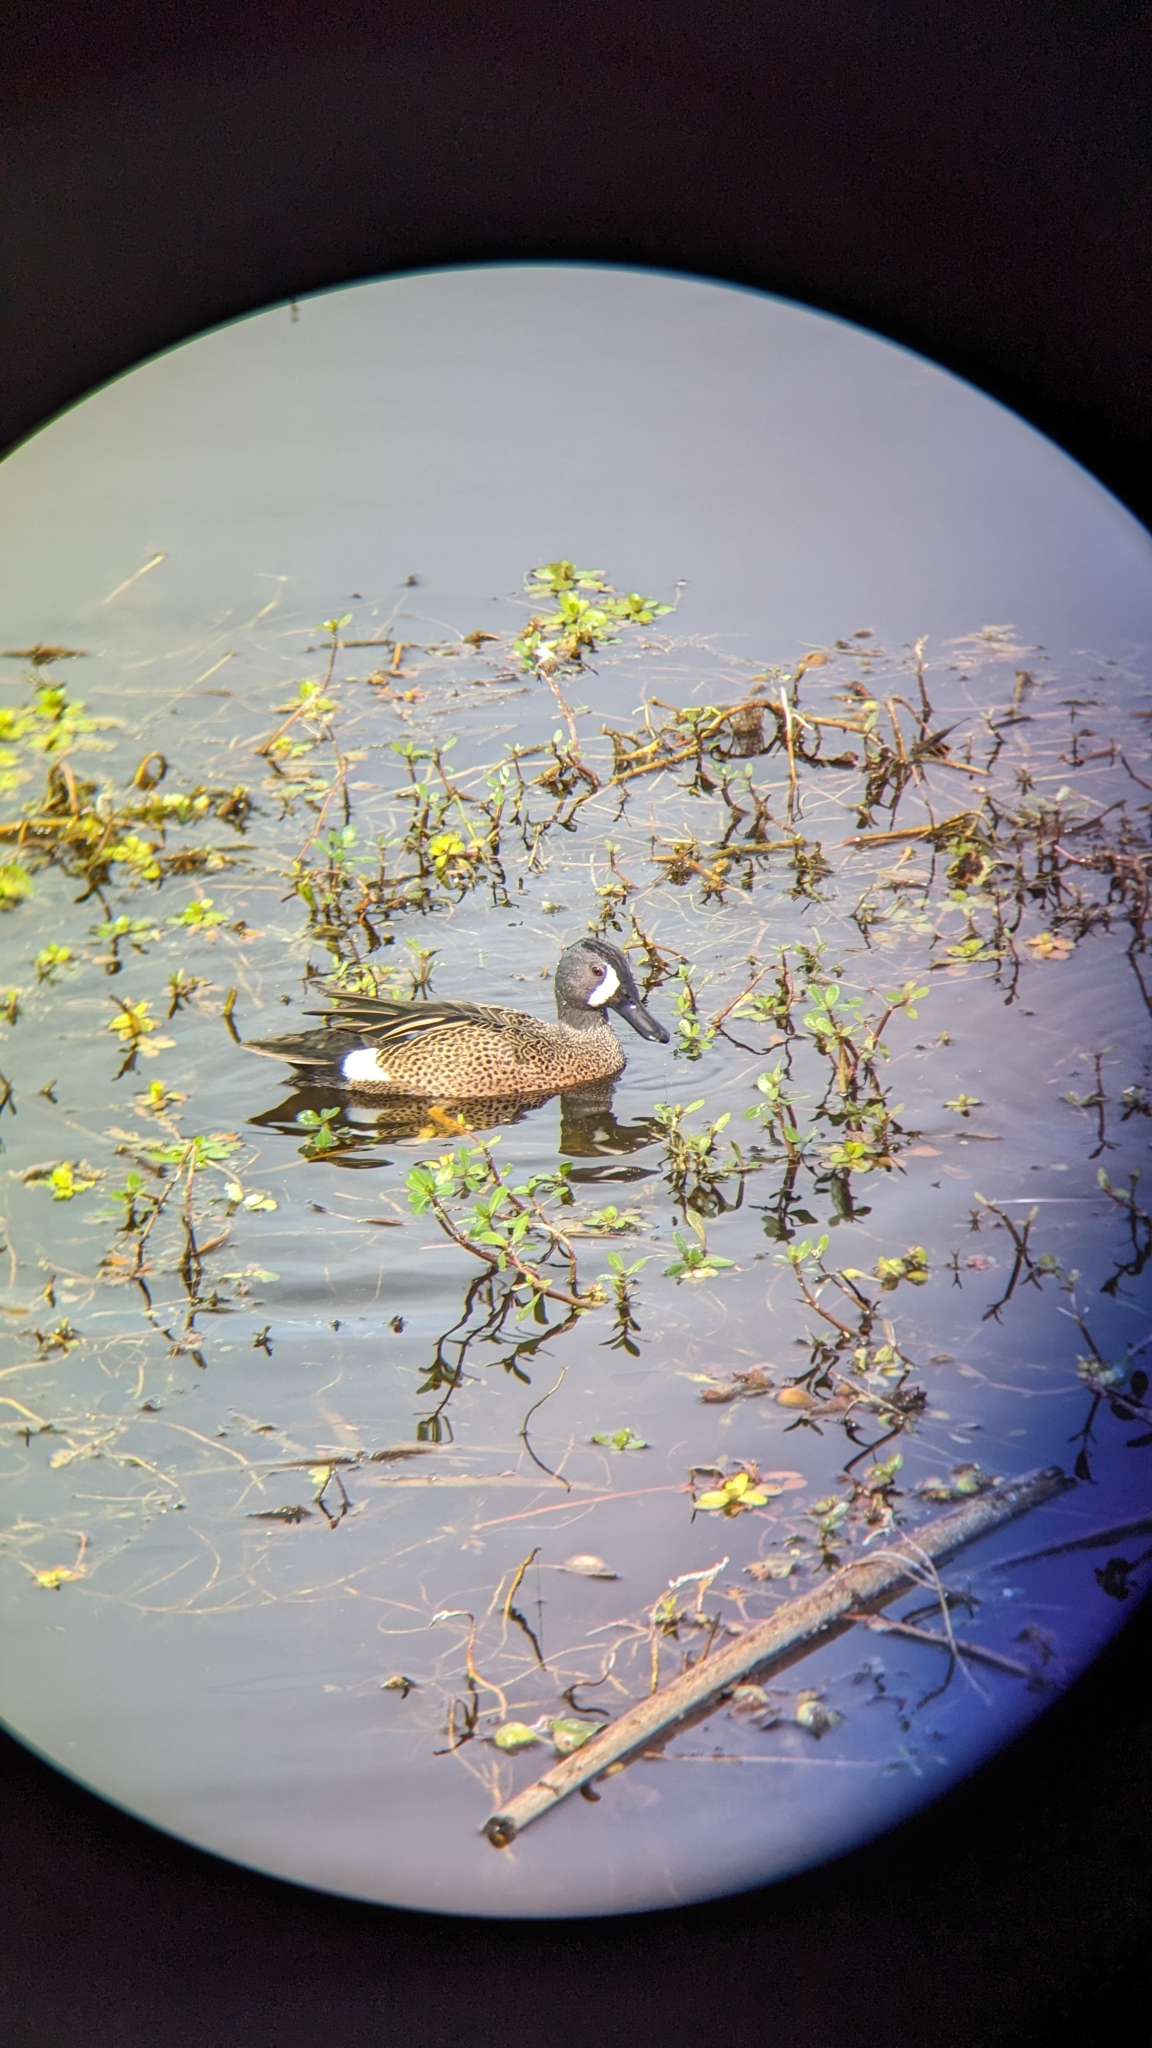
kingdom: Animalia
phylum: Chordata
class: Aves
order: Anseriformes
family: Anatidae
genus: Spatula
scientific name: Spatula discors
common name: Blue-winged teal
